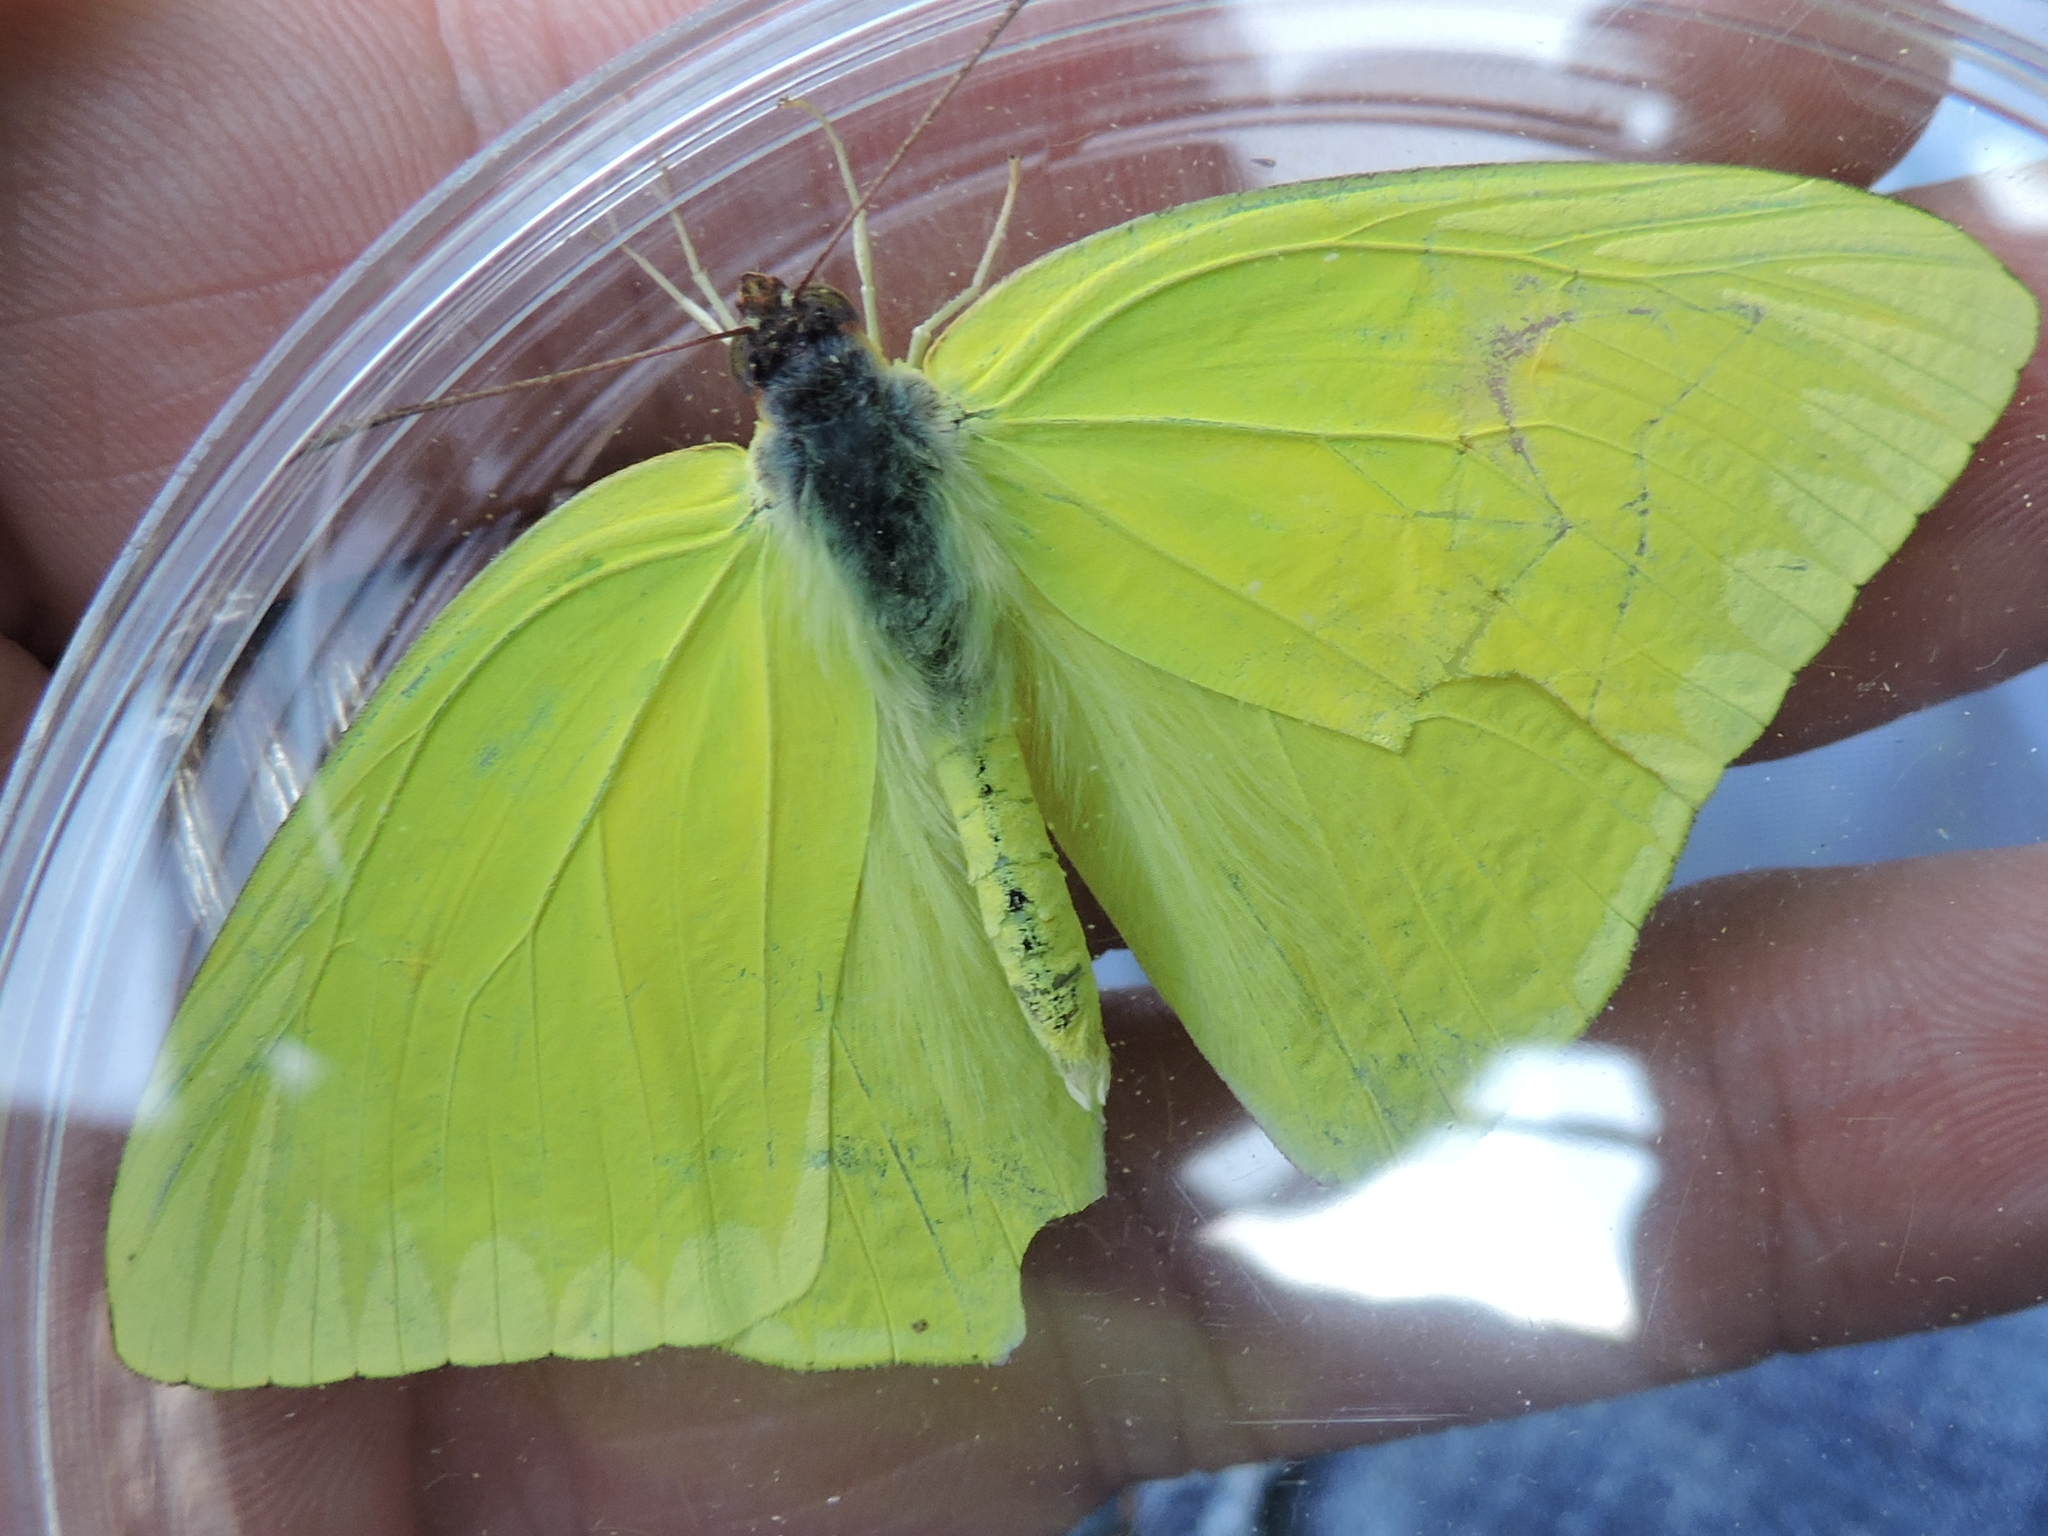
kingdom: Animalia
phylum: Arthropoda
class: Insecta
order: Lepidoptera
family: Pieridae
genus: Phoebis
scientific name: Phoebis sennae
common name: Cloudless sulphur
